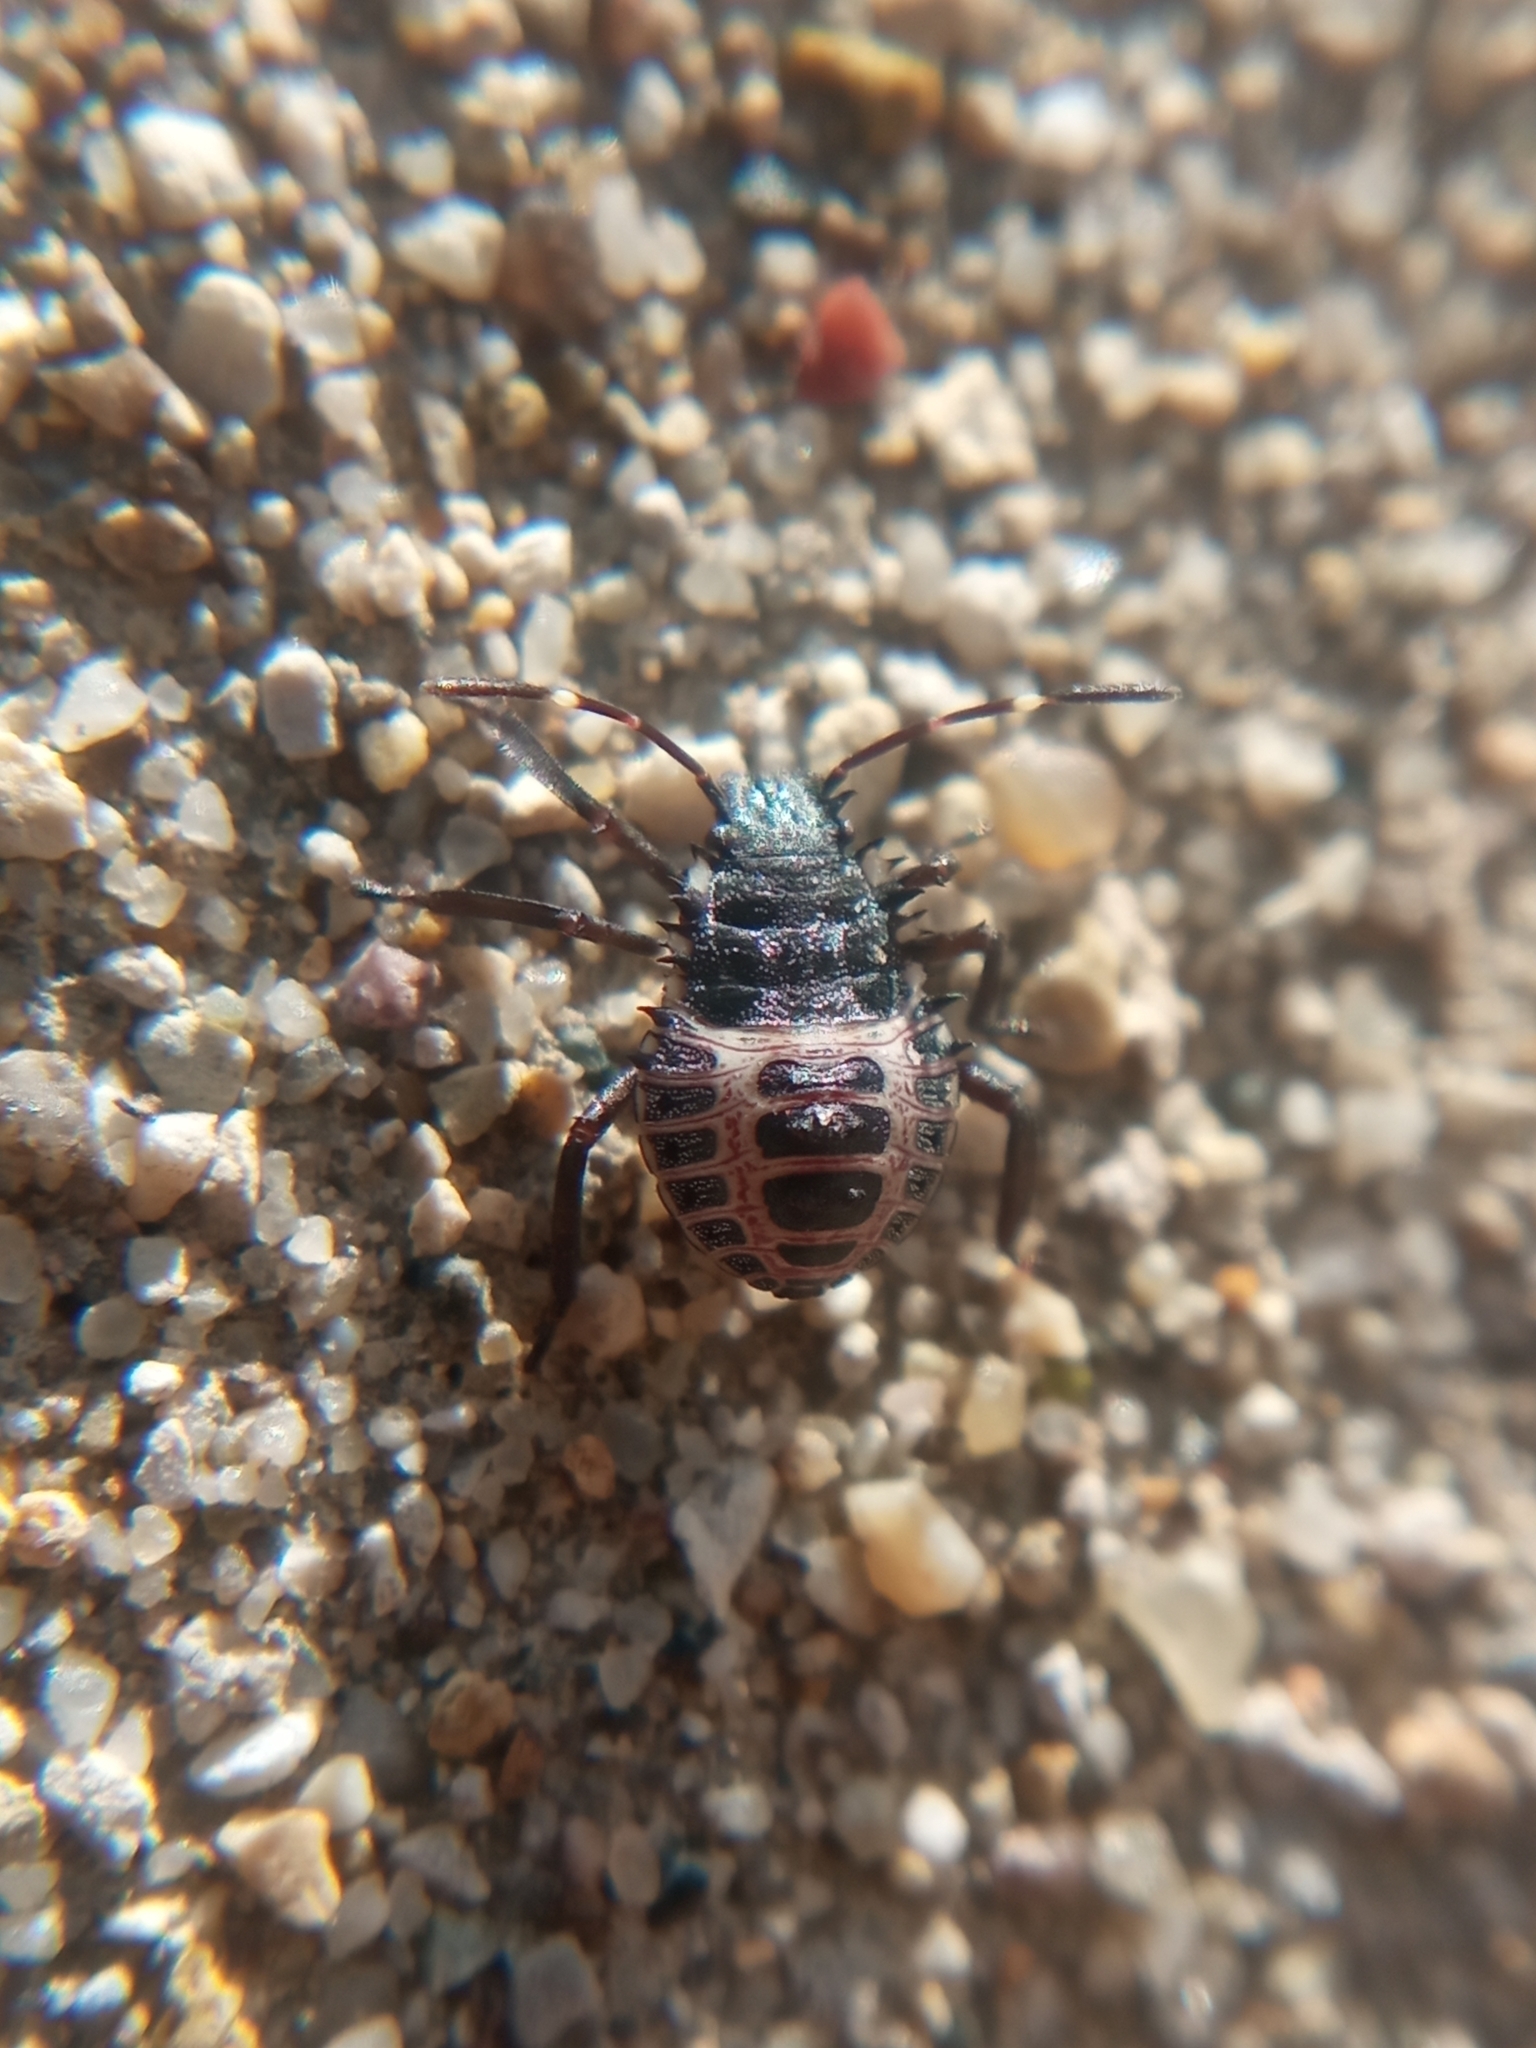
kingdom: Animalia
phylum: Arthropoda
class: Insecta
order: Hemiptera
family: Pentatomidae
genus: Halyomorpha
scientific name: Halyomorpha halys
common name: Brown marmorated stink bug
